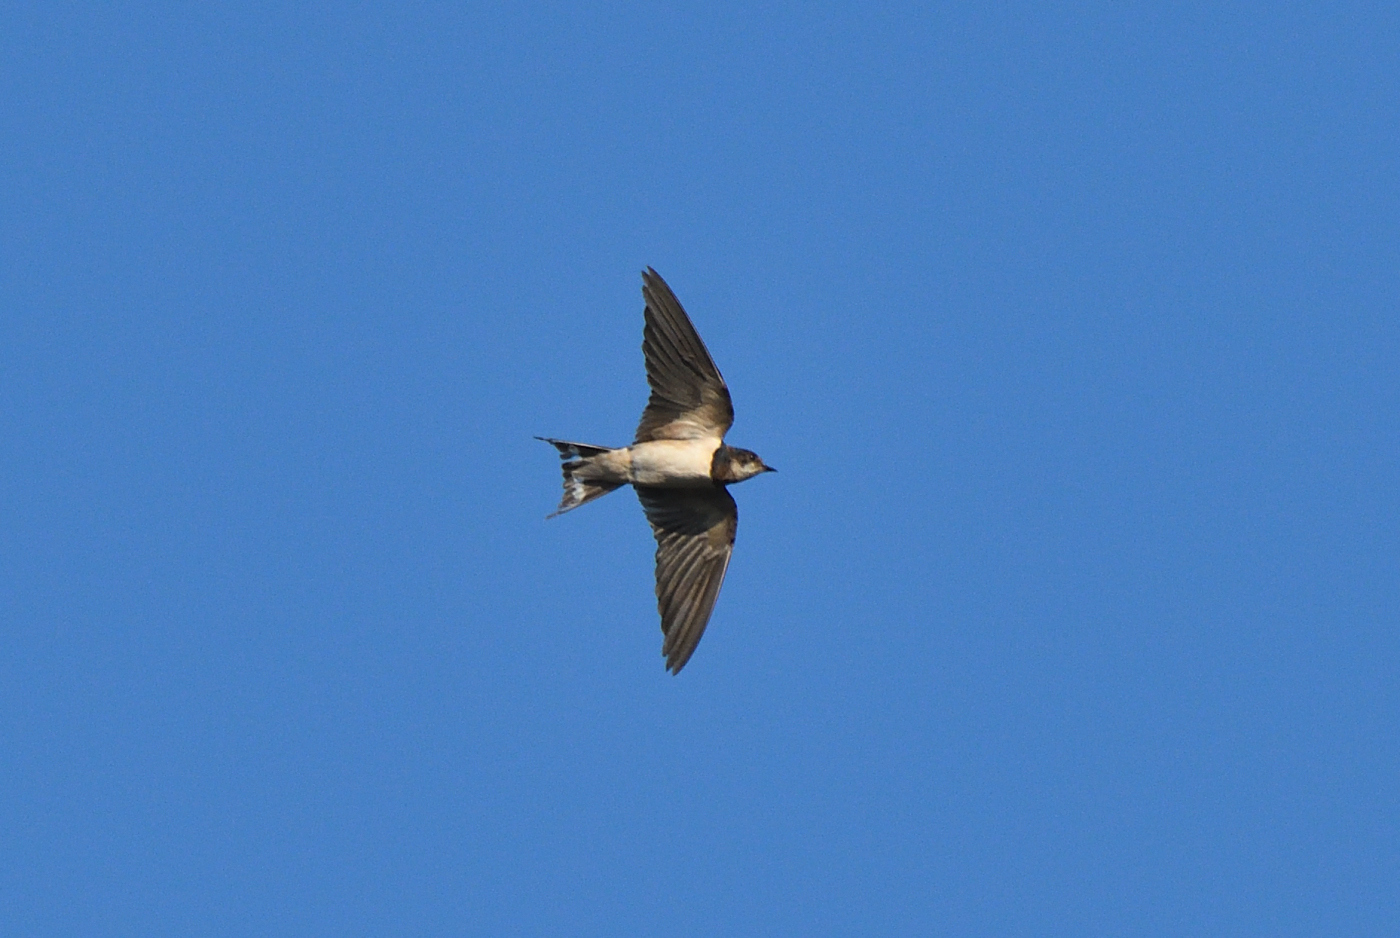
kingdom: Animalia
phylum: Chordata
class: Aves
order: Passeriformes
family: Hirundinidae
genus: Hirundo
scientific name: Hirundo rustica
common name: Barn swallow
